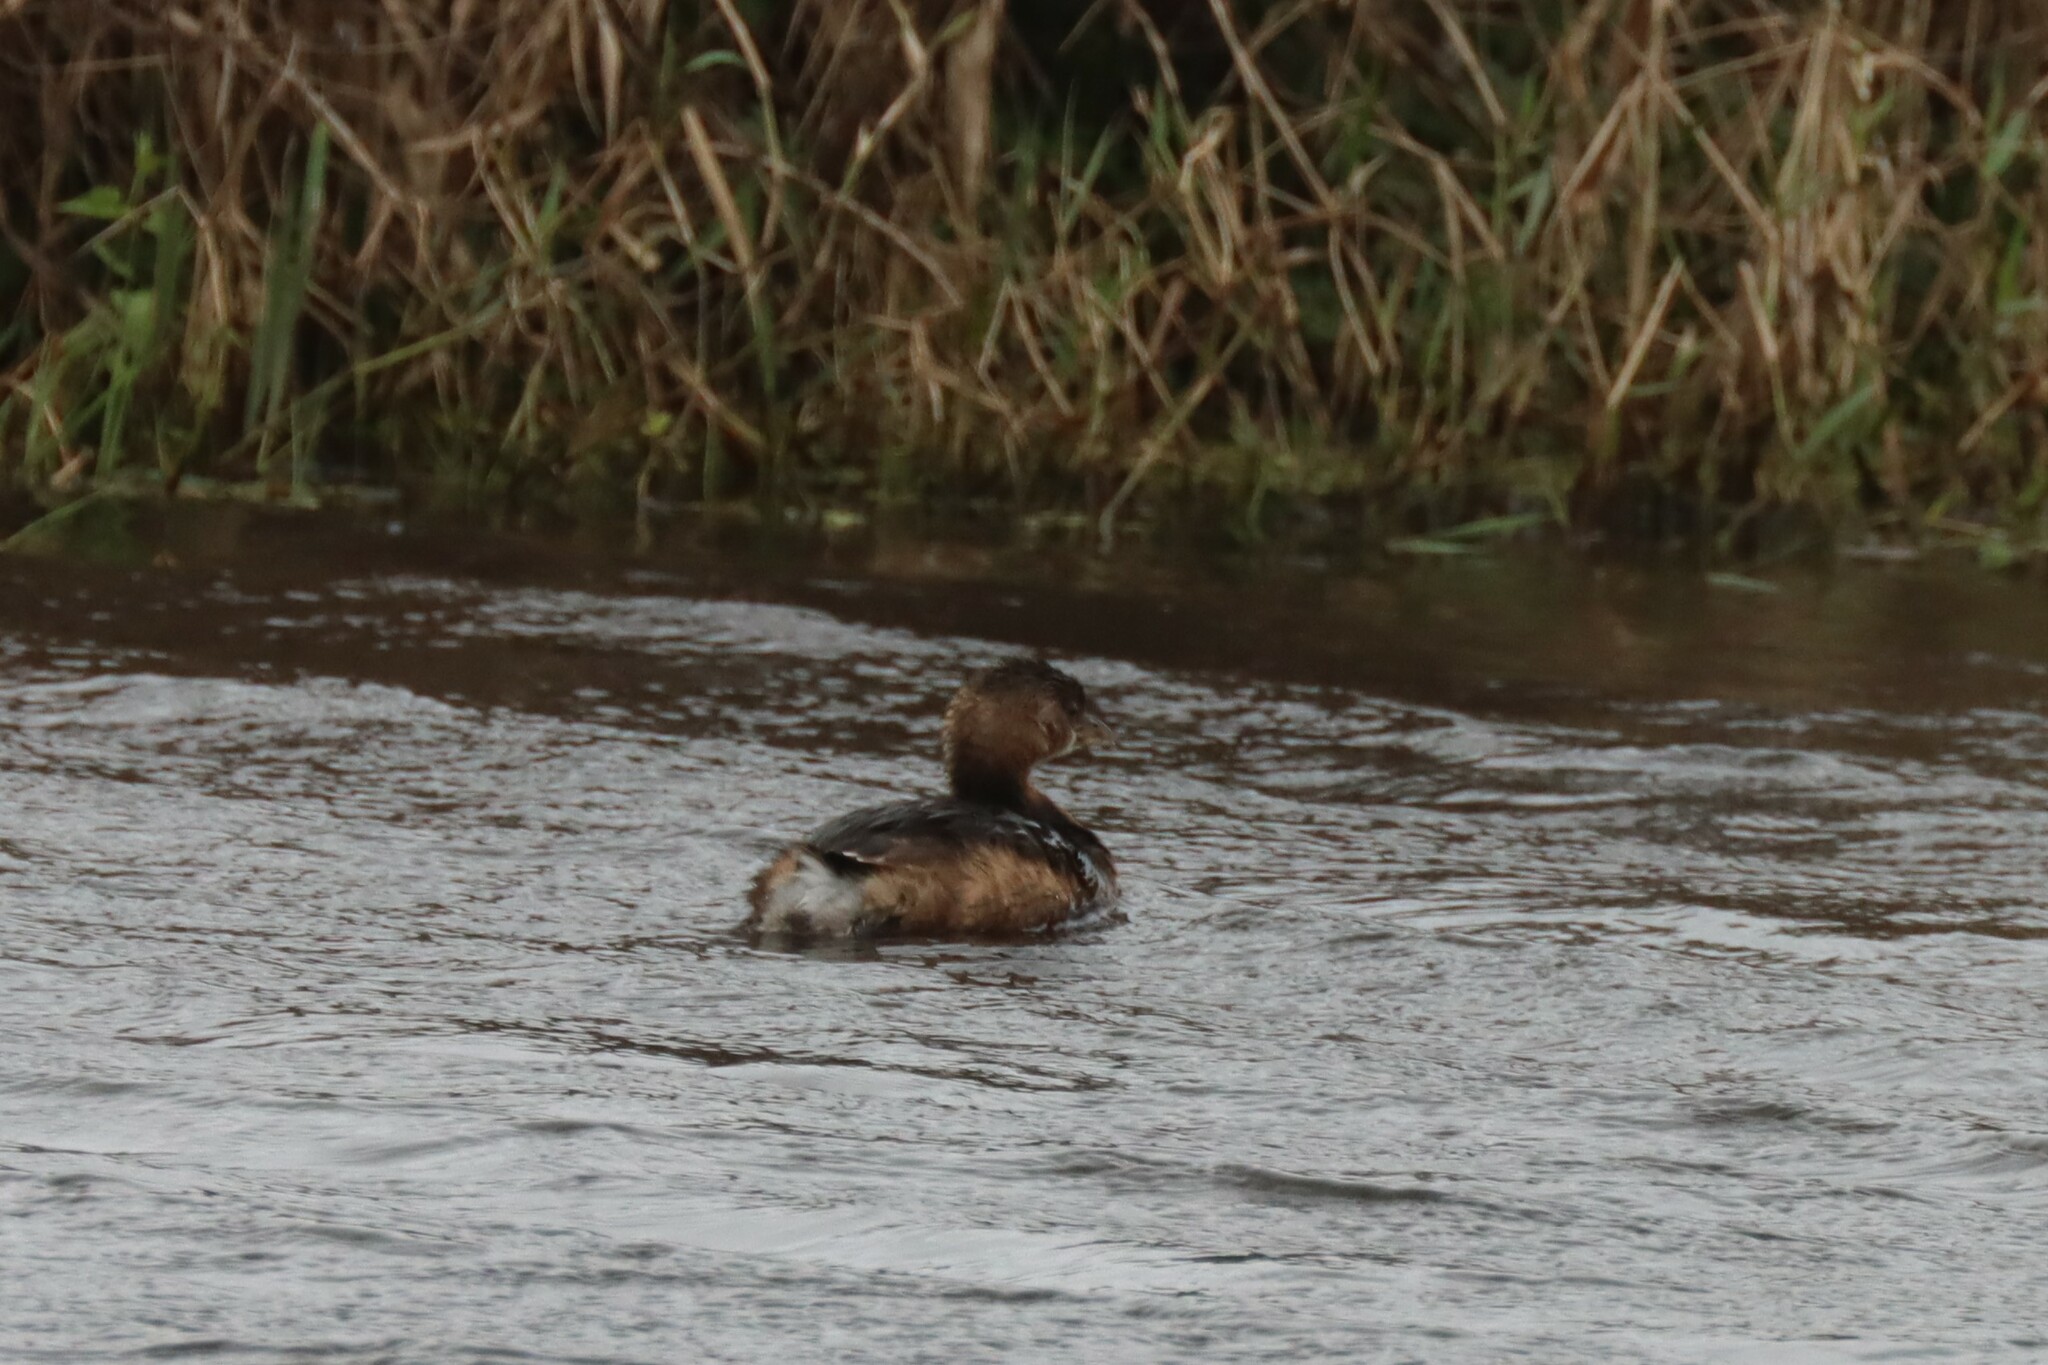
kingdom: Animalia
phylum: Chordata
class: Aves
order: Podicipediformes
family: Podicipedidae
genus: Podilymbus
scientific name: Podilymbus podiceps
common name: Pied-billed grebe
